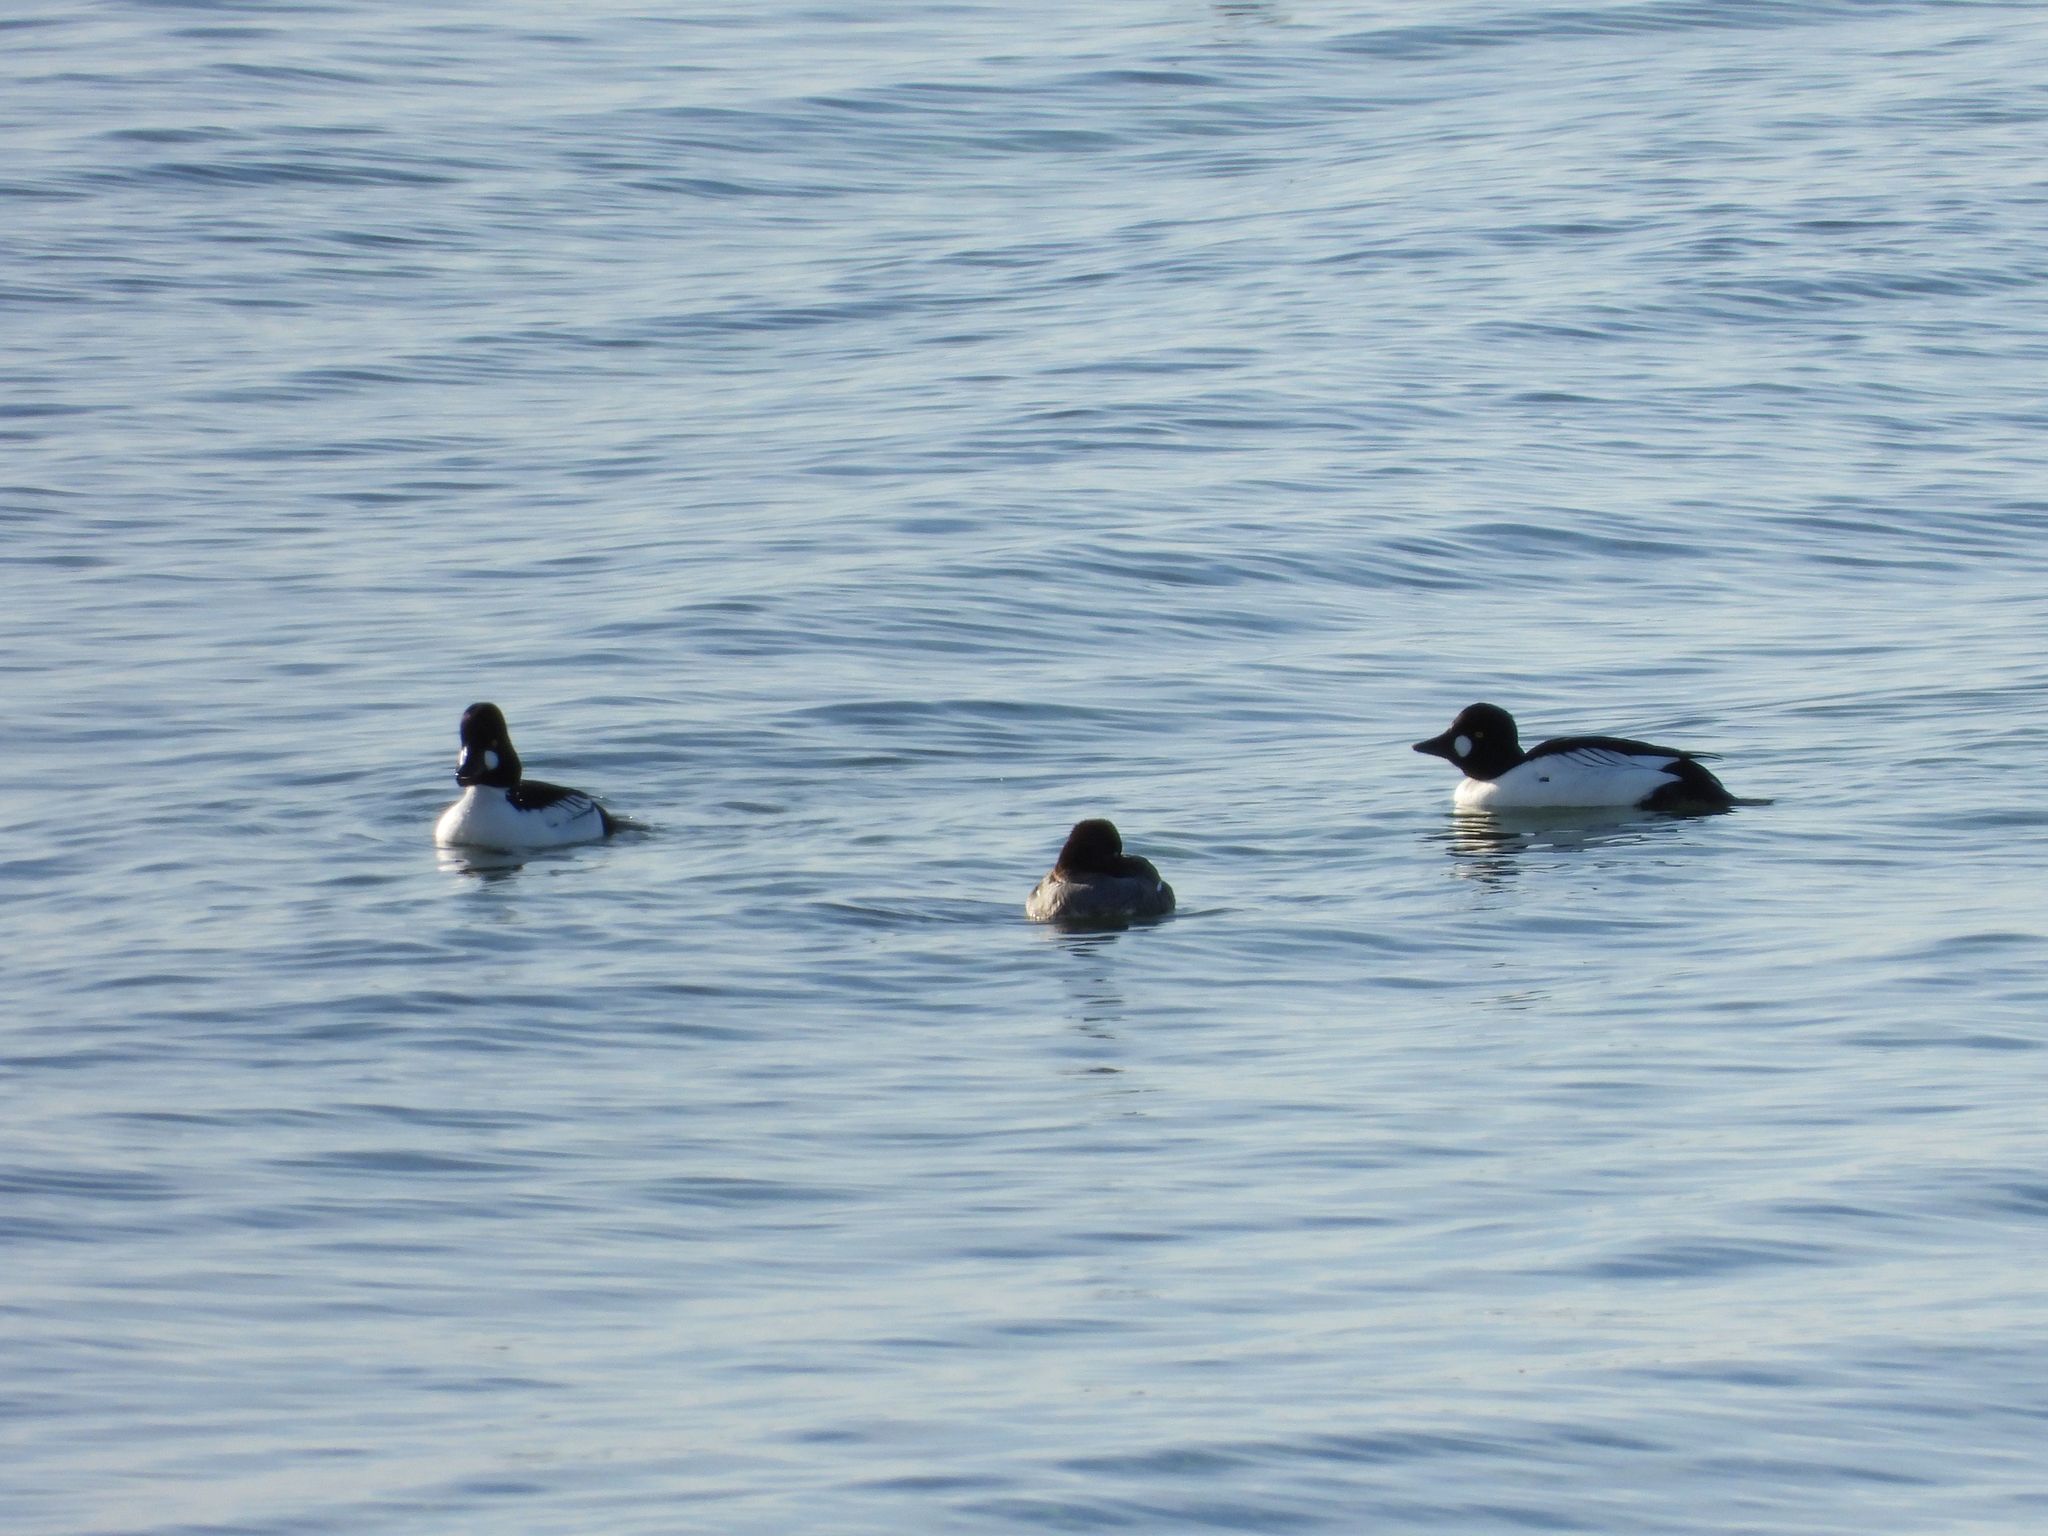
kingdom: Animalia
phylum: Chordata
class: Aves
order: Anseriformes
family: Anatidae
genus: Bucephala
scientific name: Bucephala clangula
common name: Common goldeneye
